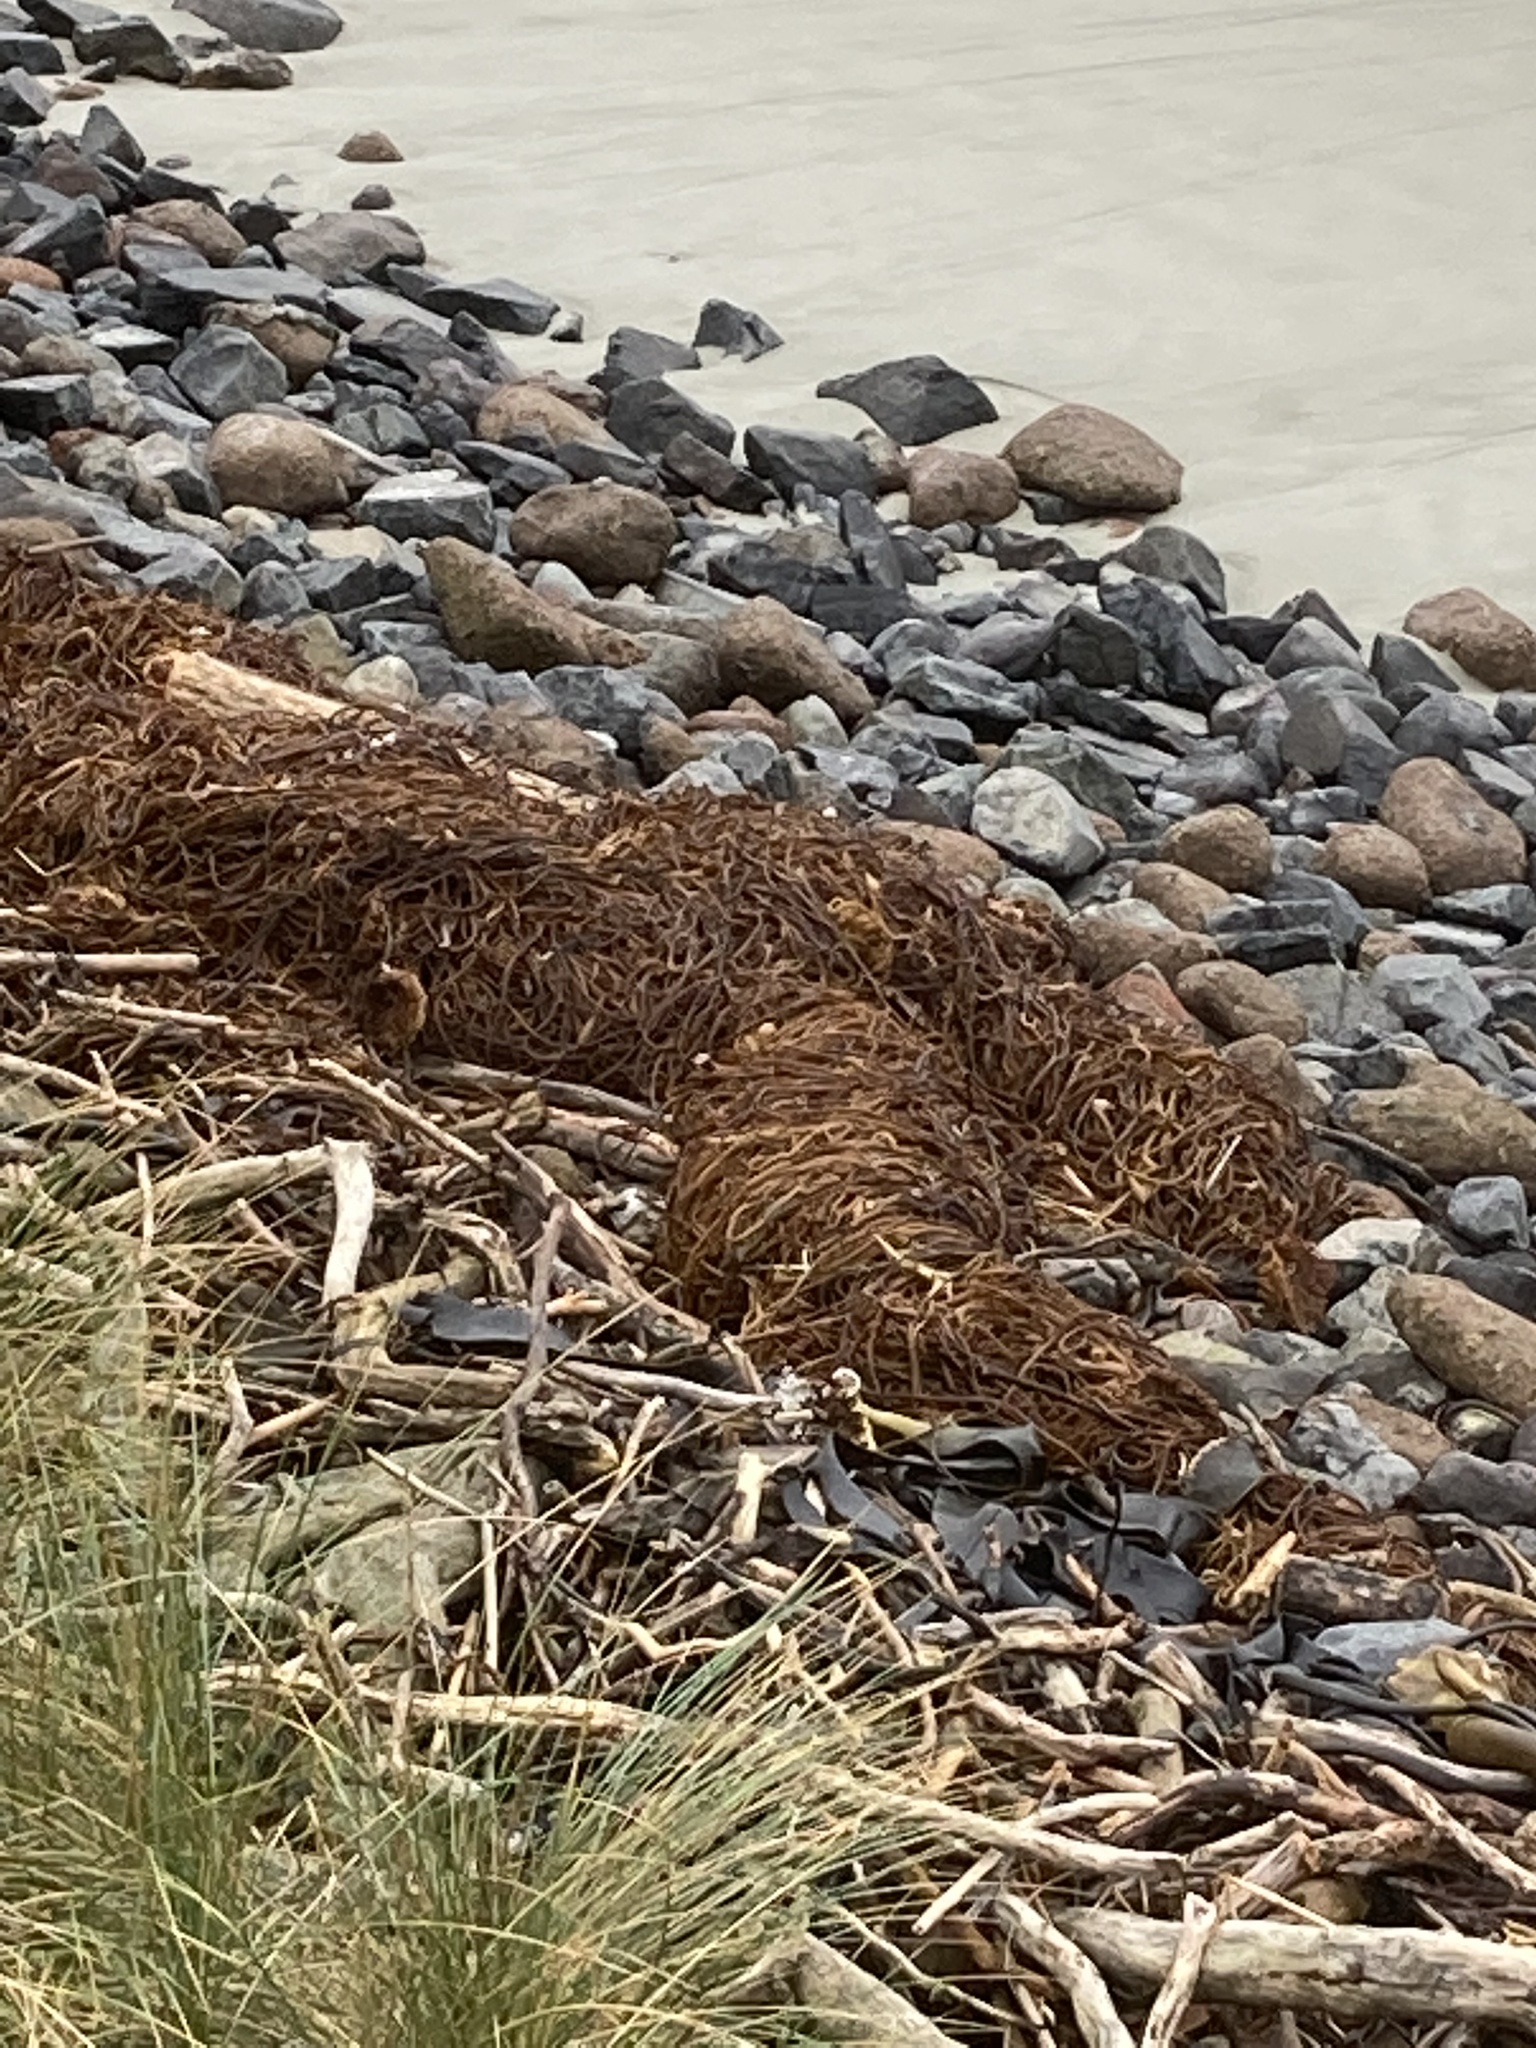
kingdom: Chromista
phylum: Ochrophyta
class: Phaeophyceae
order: Laminariales
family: Laminariaceae
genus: Macrocystis
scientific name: Macrocystis pyrifera
